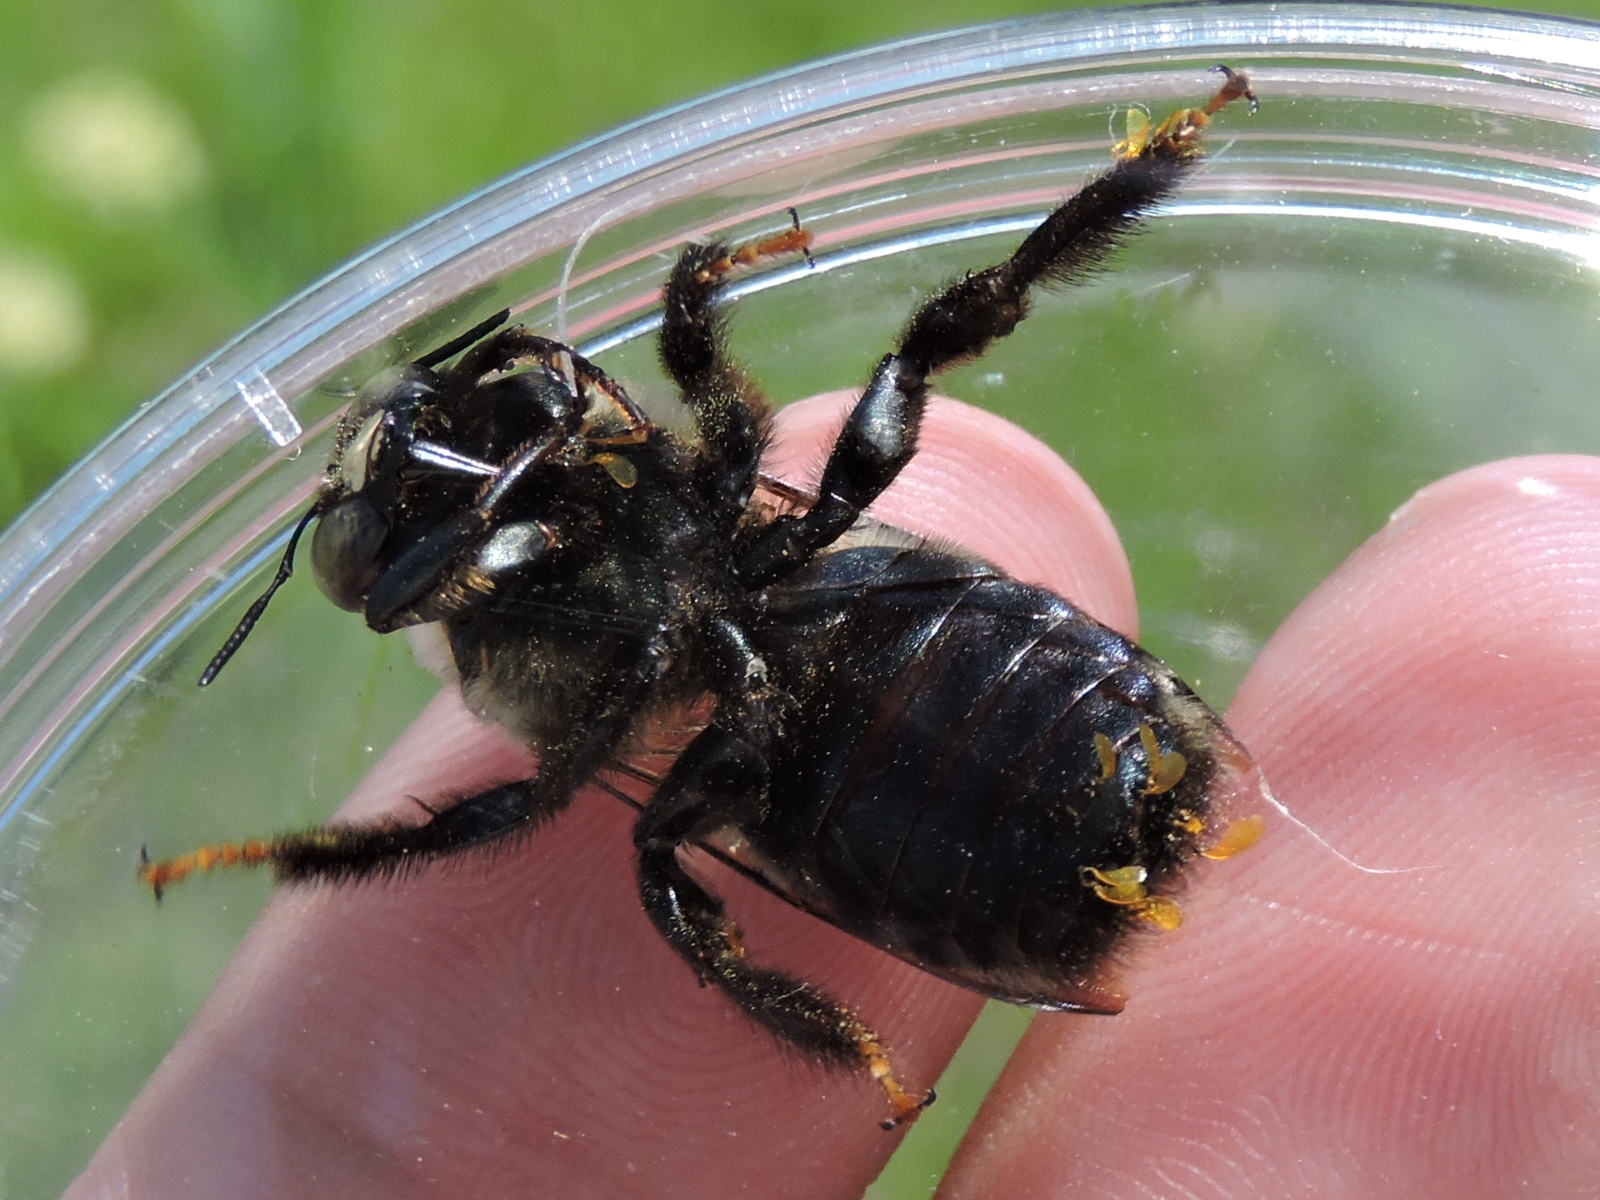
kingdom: Animalia
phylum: Arthropoda
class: Insecta
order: Hymenoptera
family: Apidae
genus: Xylocopa
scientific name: Xylocopa virginica
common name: Carpenter bee
